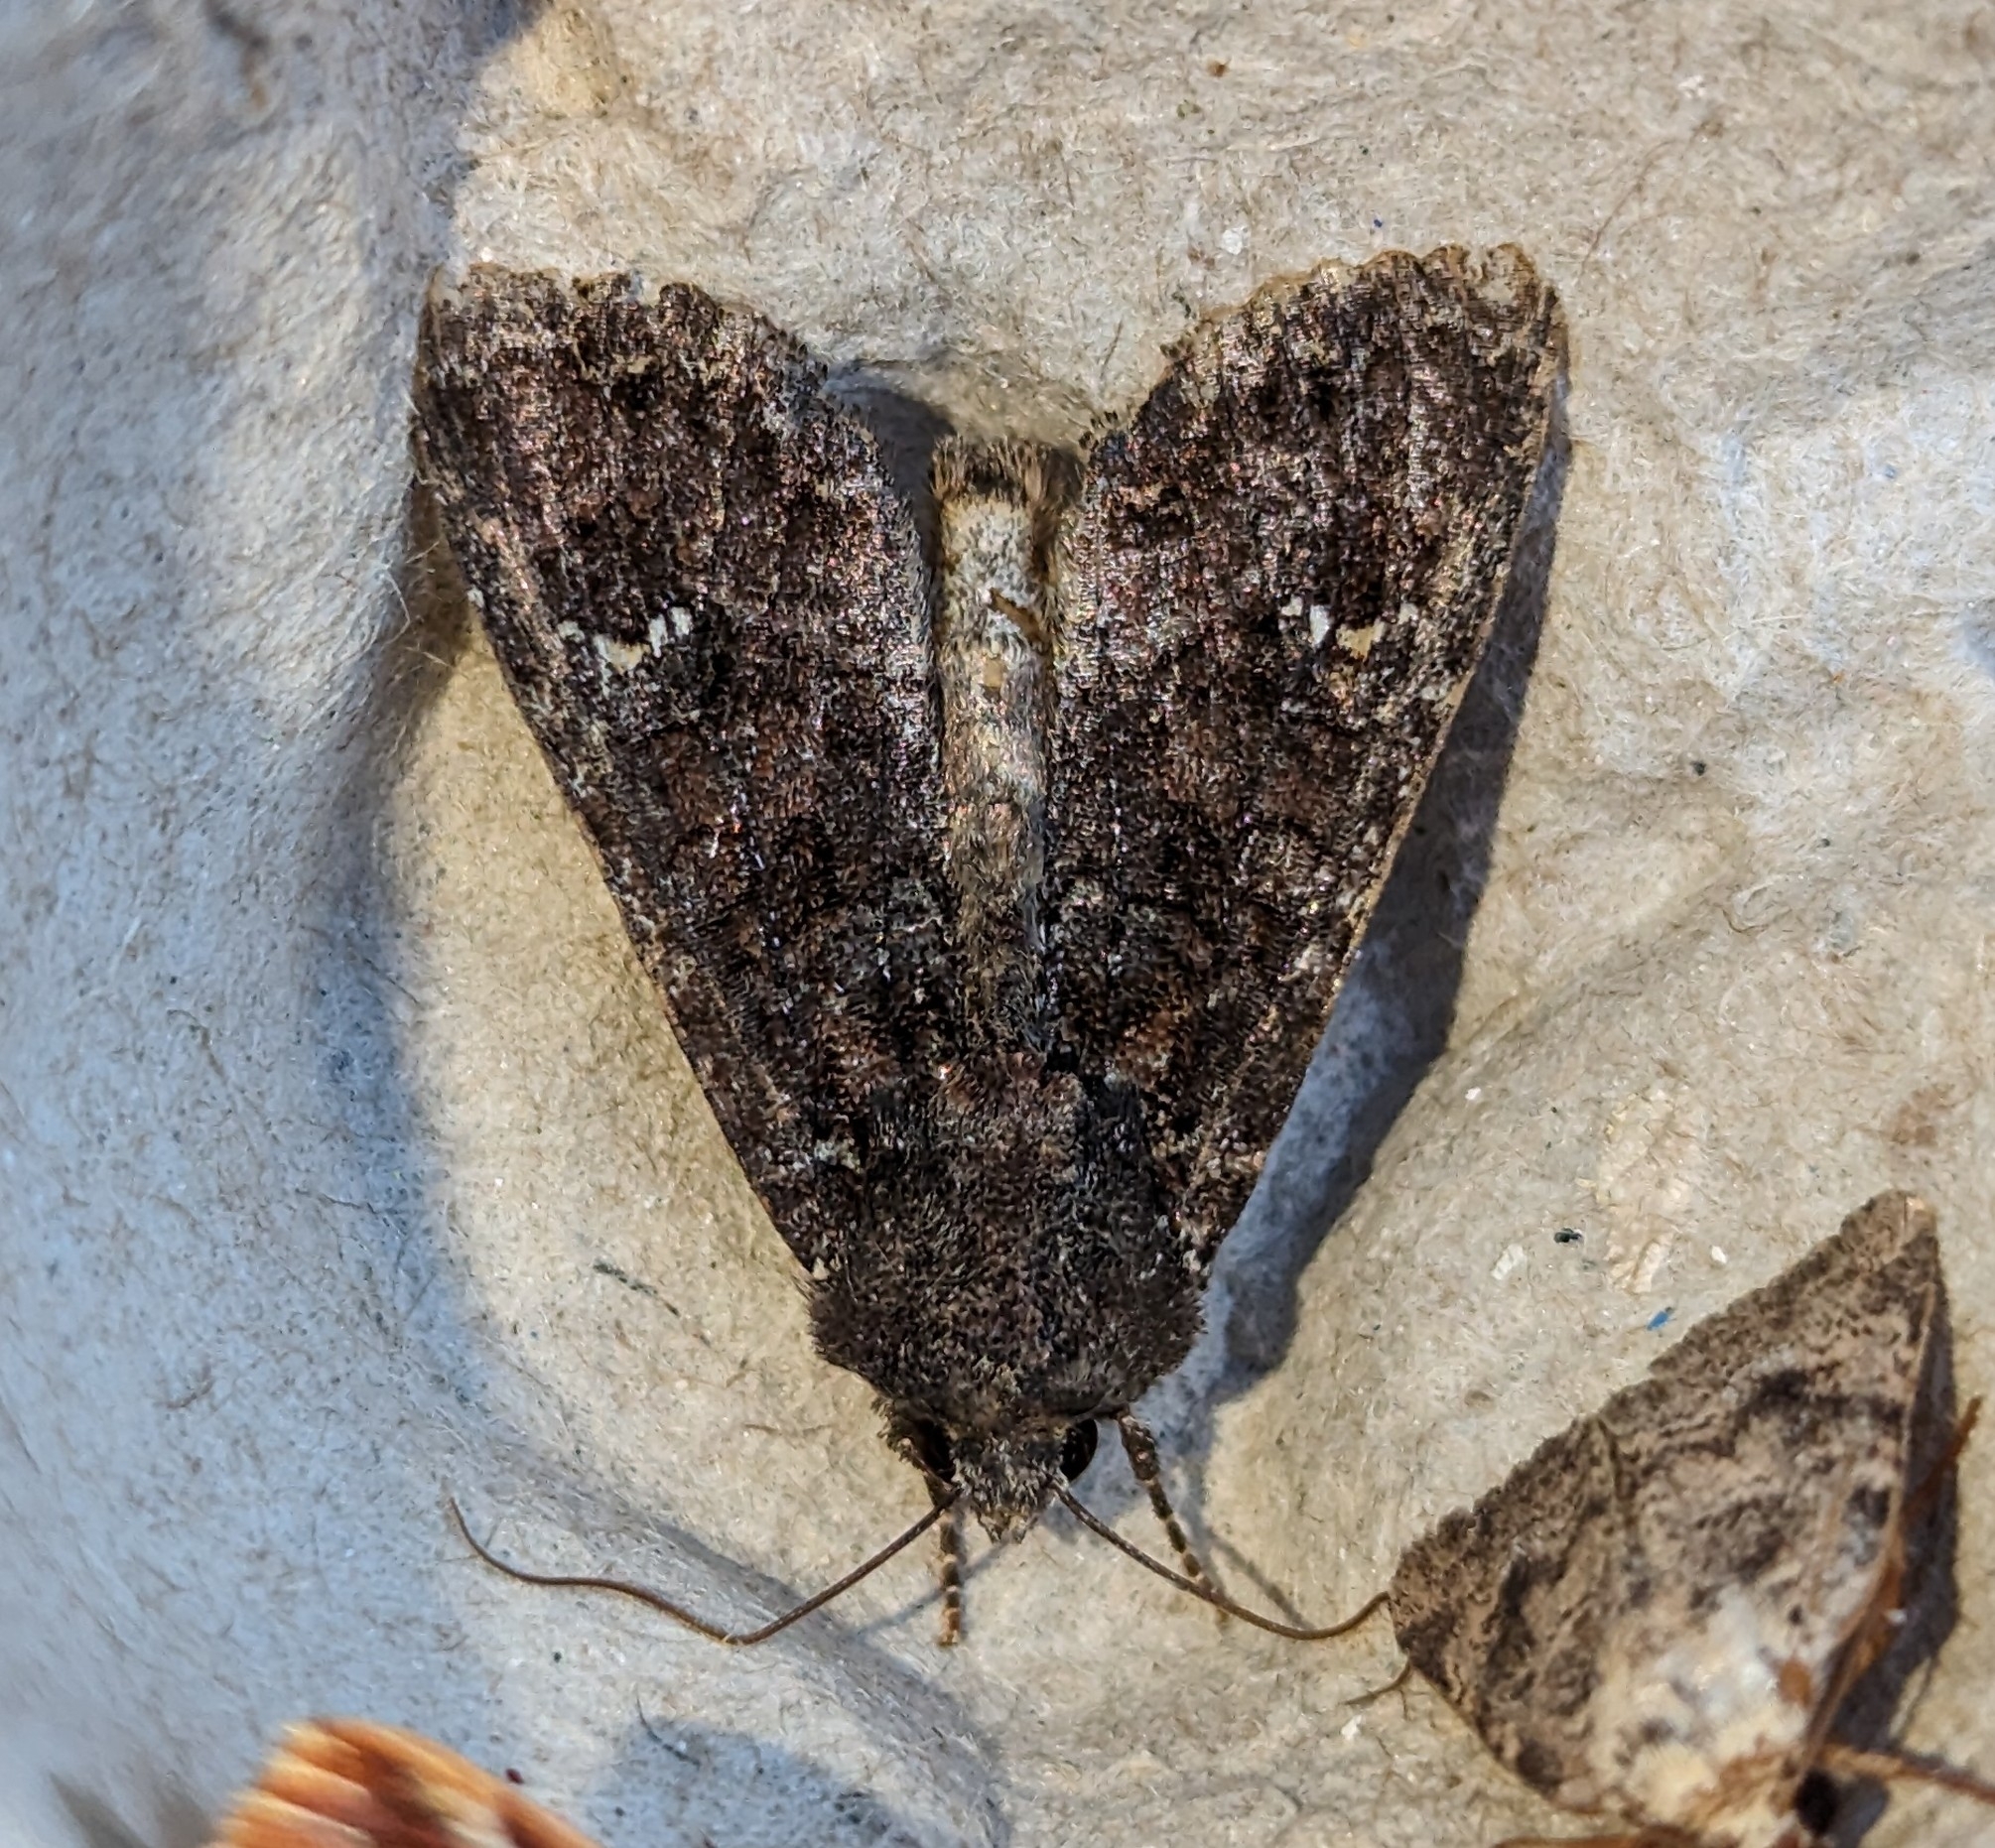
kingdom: Animalia
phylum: Arthropoda
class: Insecta
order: Lepidoptera
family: Noctuidae
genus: Apamea
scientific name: Apamea amputatrix
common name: Yellow-headed cutworm moth
